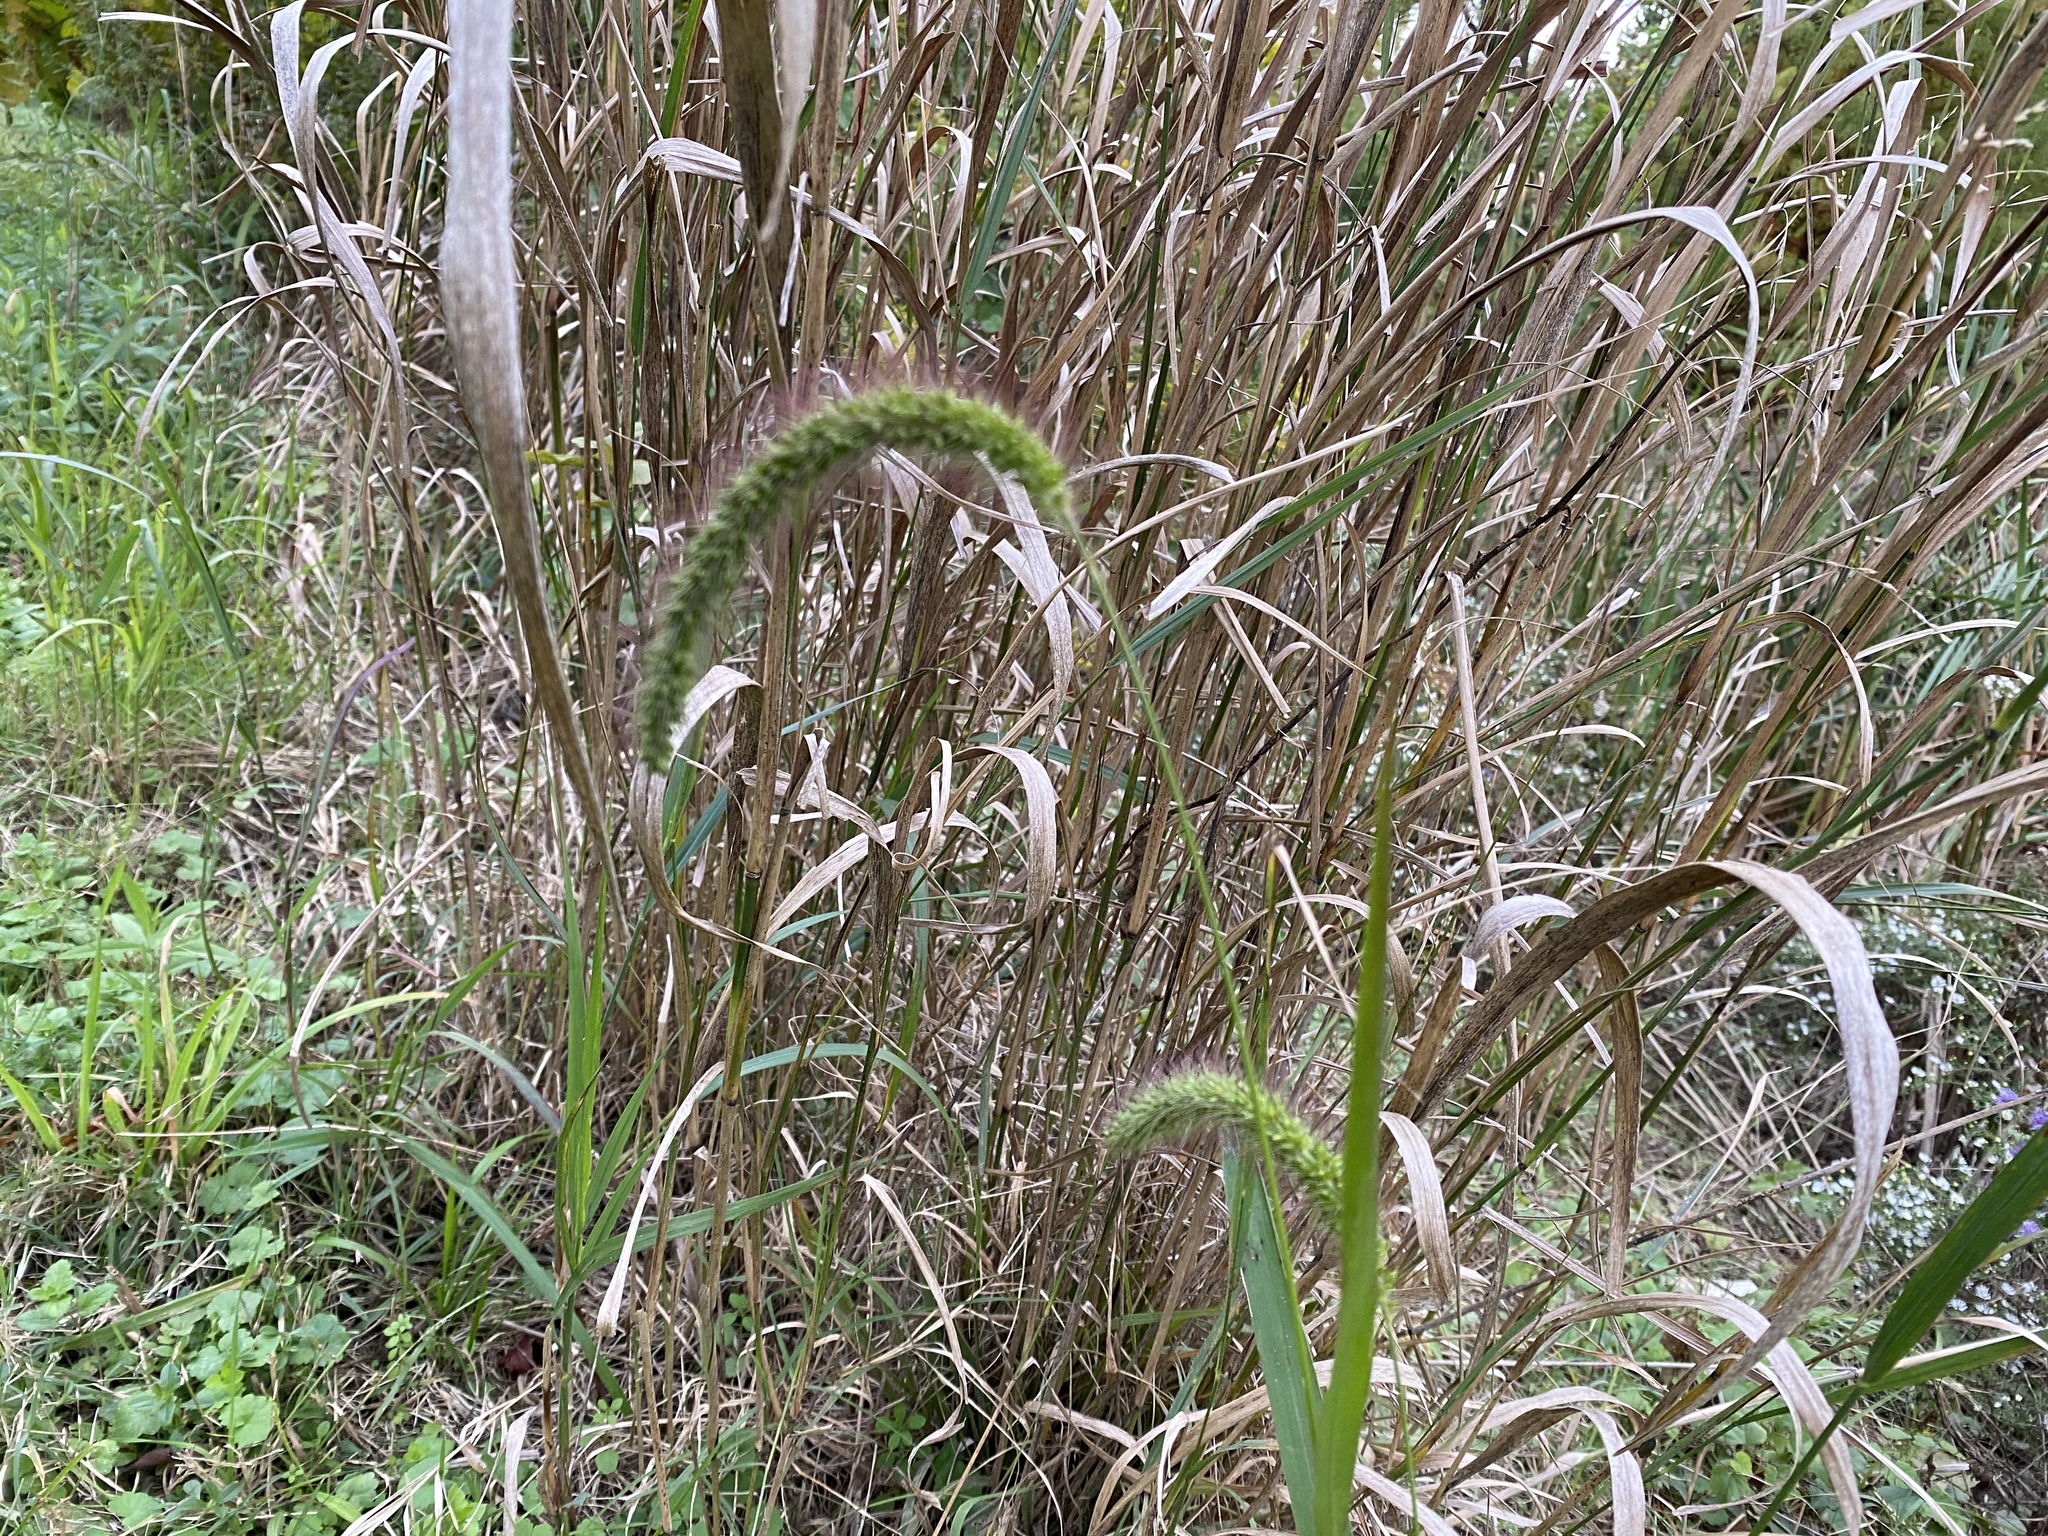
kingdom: Plantae
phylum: Tracheophyta
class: Liliopsida
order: Poales
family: Poaceae
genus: Setaria
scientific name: Setaria faberi
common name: Nodding bristle-grass
